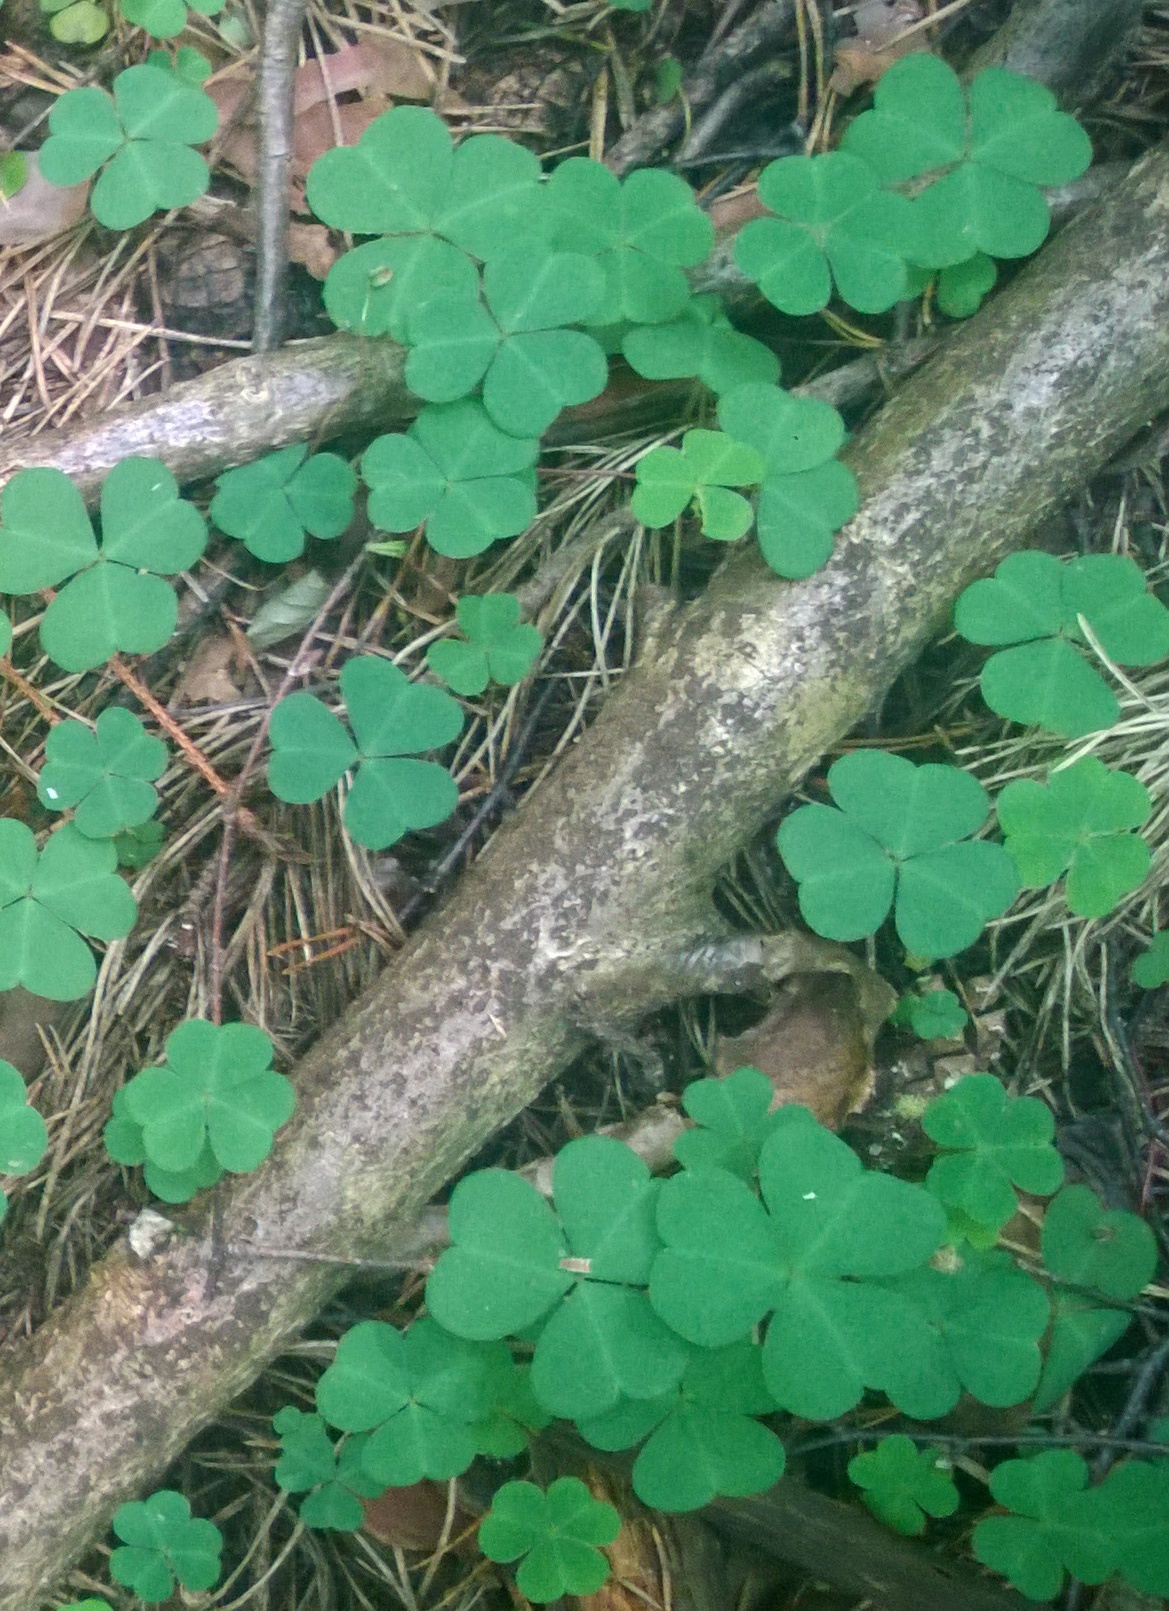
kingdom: Plantae
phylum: Tracheophyta
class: Magnoliopsida
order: Oxalidales
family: Oxalidaceae
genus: Oxalis
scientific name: Oxalis acetosella
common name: Wood-sorrel
